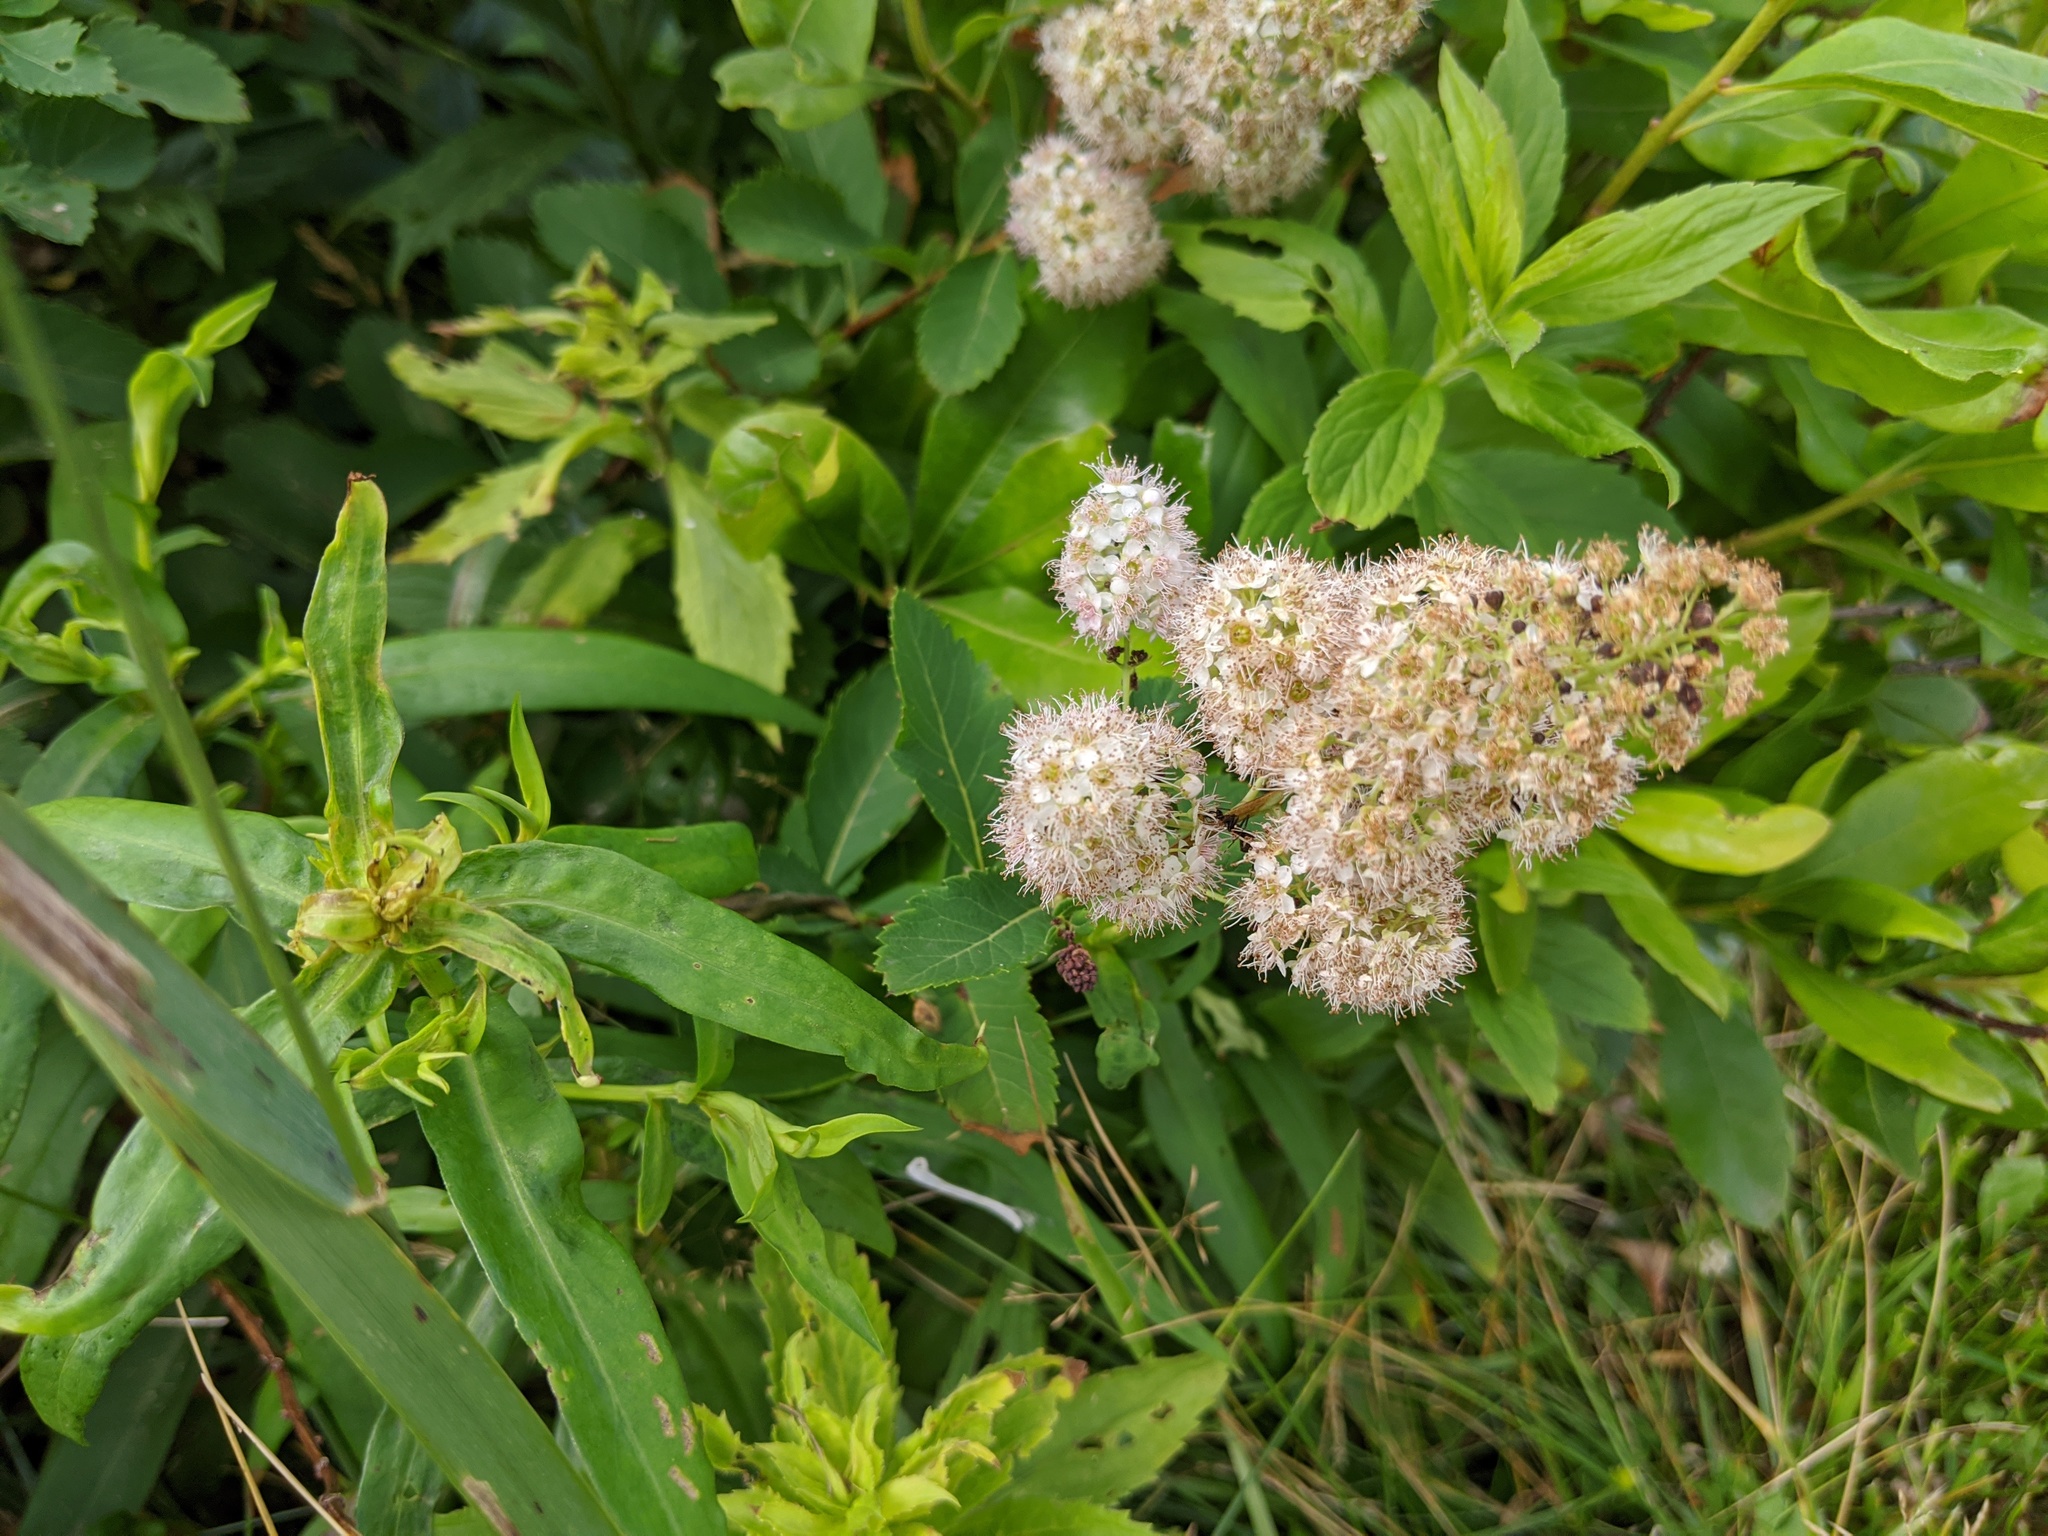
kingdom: Plantae
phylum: Tracheophyta
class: Magnoliopsida
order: Rosales
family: Rosaceae
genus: Spiraea
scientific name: Spiraea alba
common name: Pale bridewort
